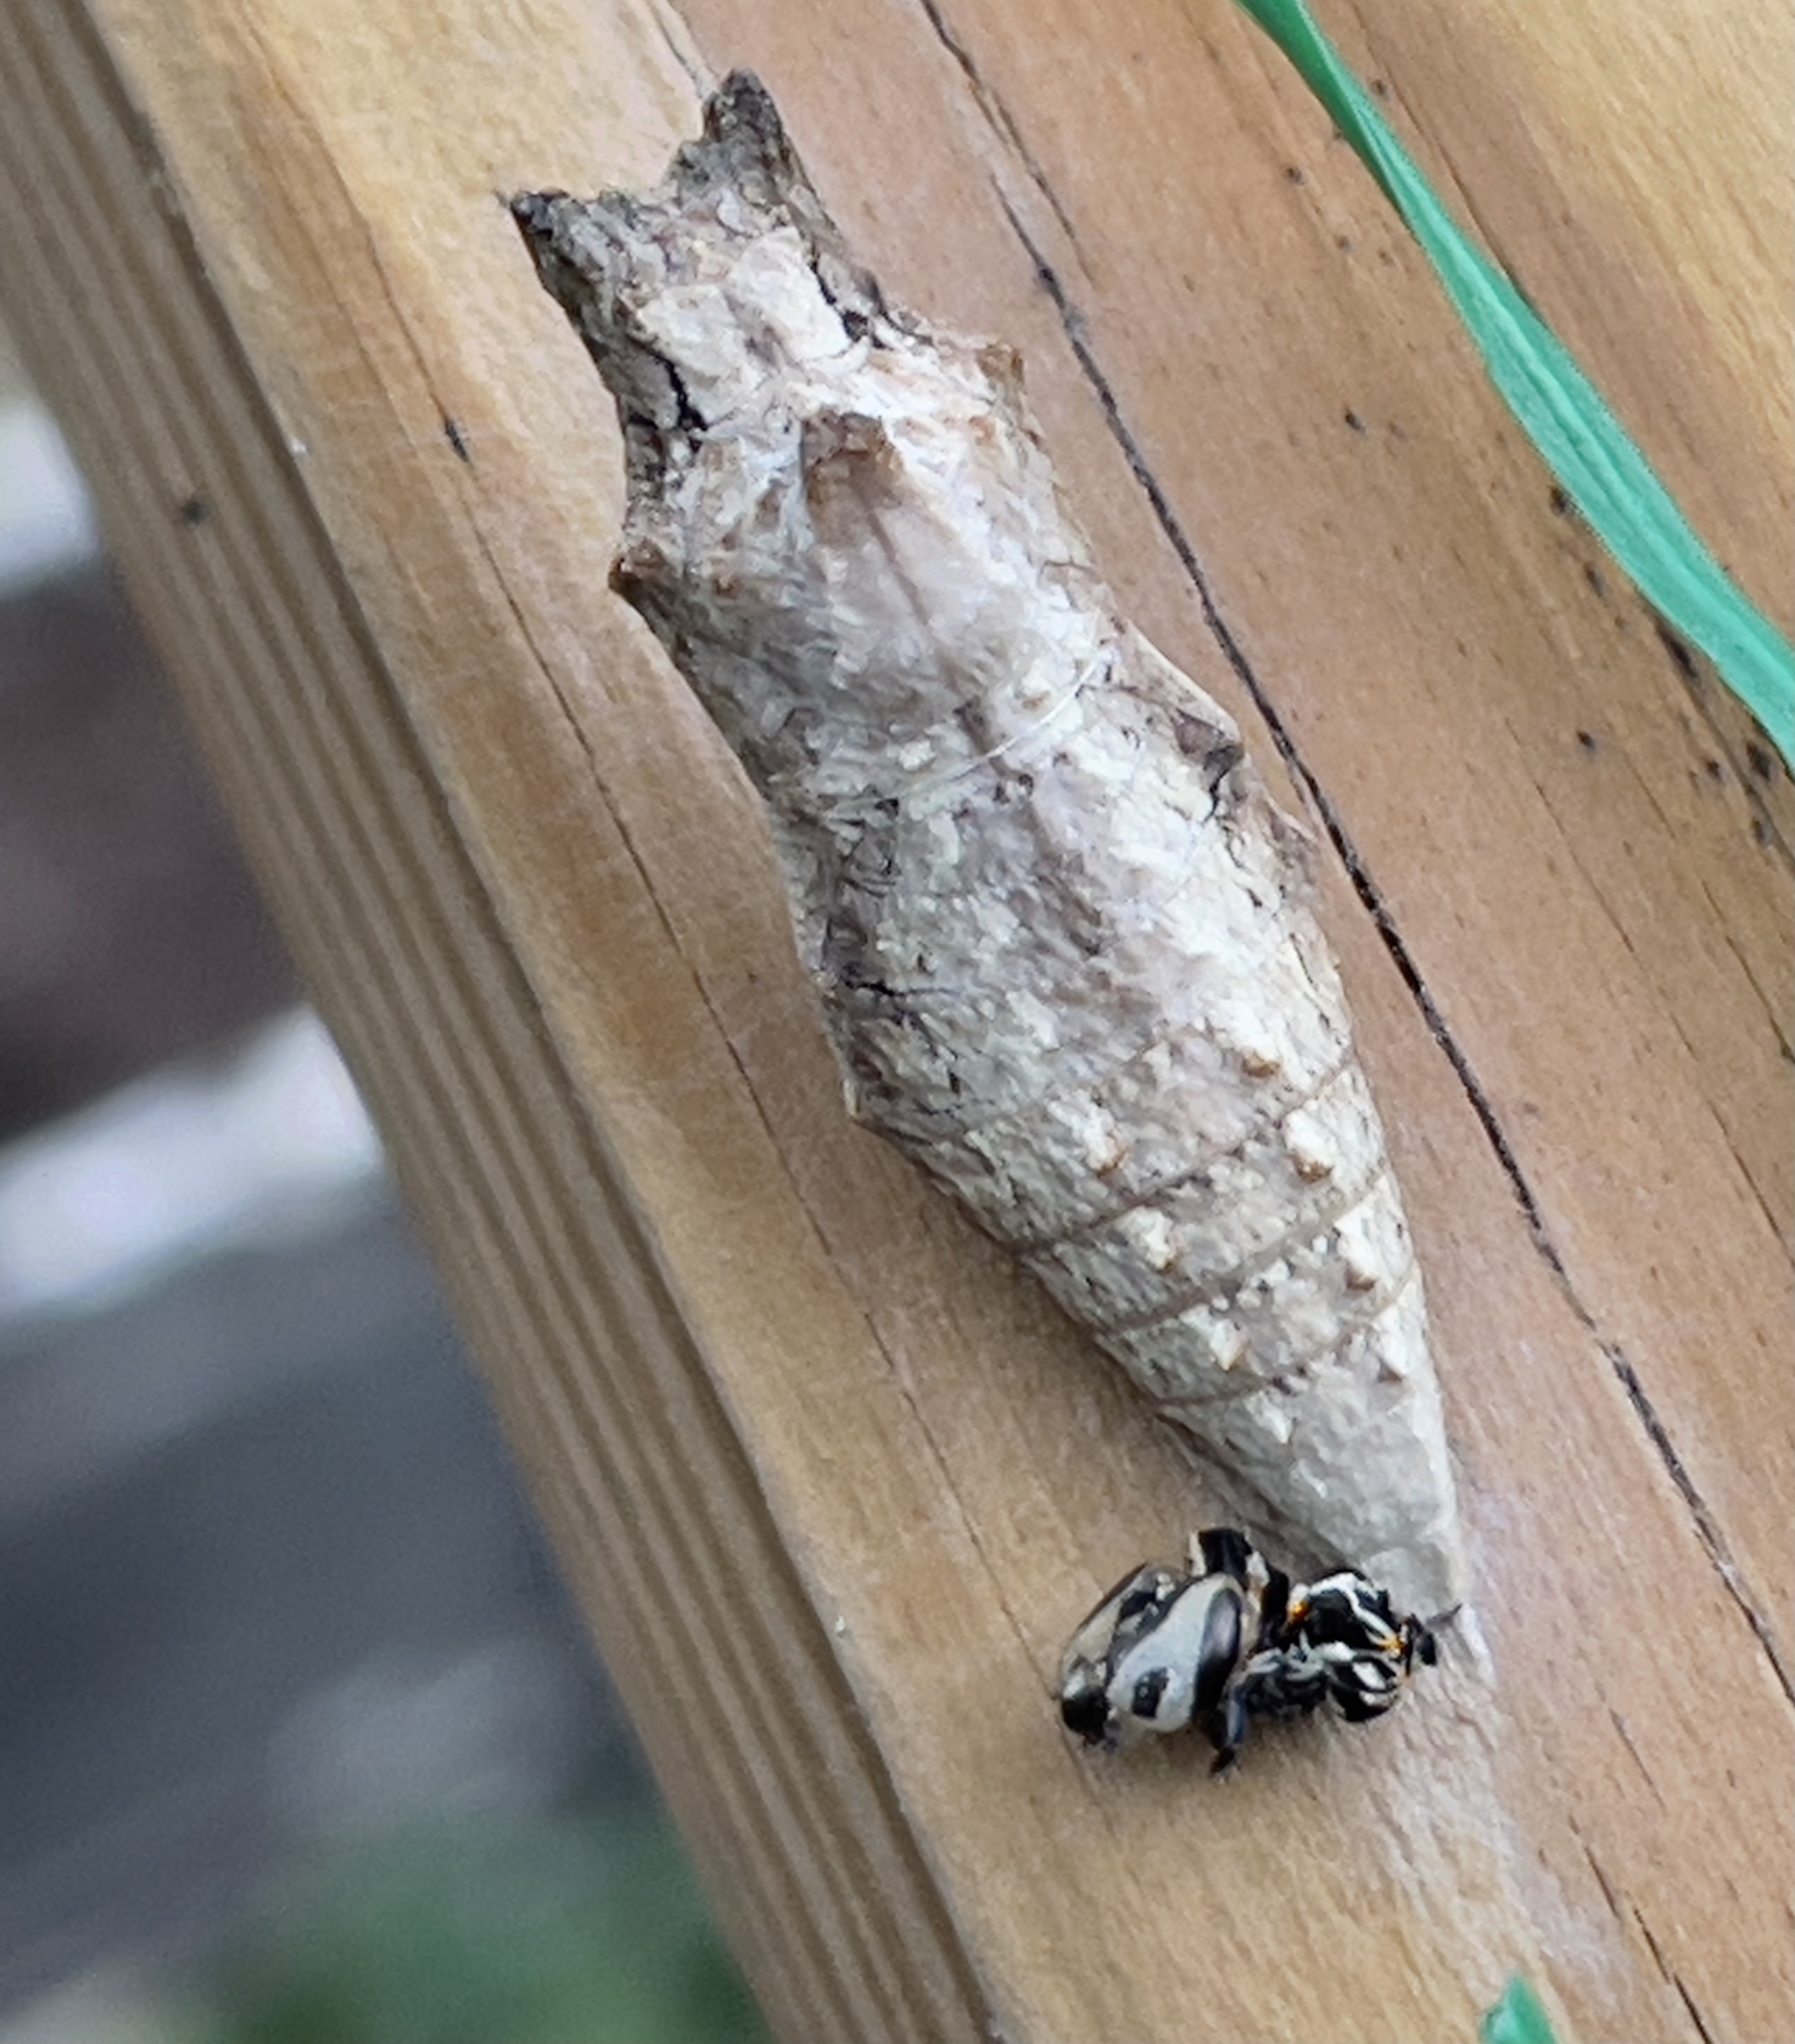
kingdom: Animalia
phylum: Arthropoda
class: Insecta
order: Lepidoptera
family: Papilionidae
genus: Papilio
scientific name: Papilio polyxenes
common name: Black swallowtail
